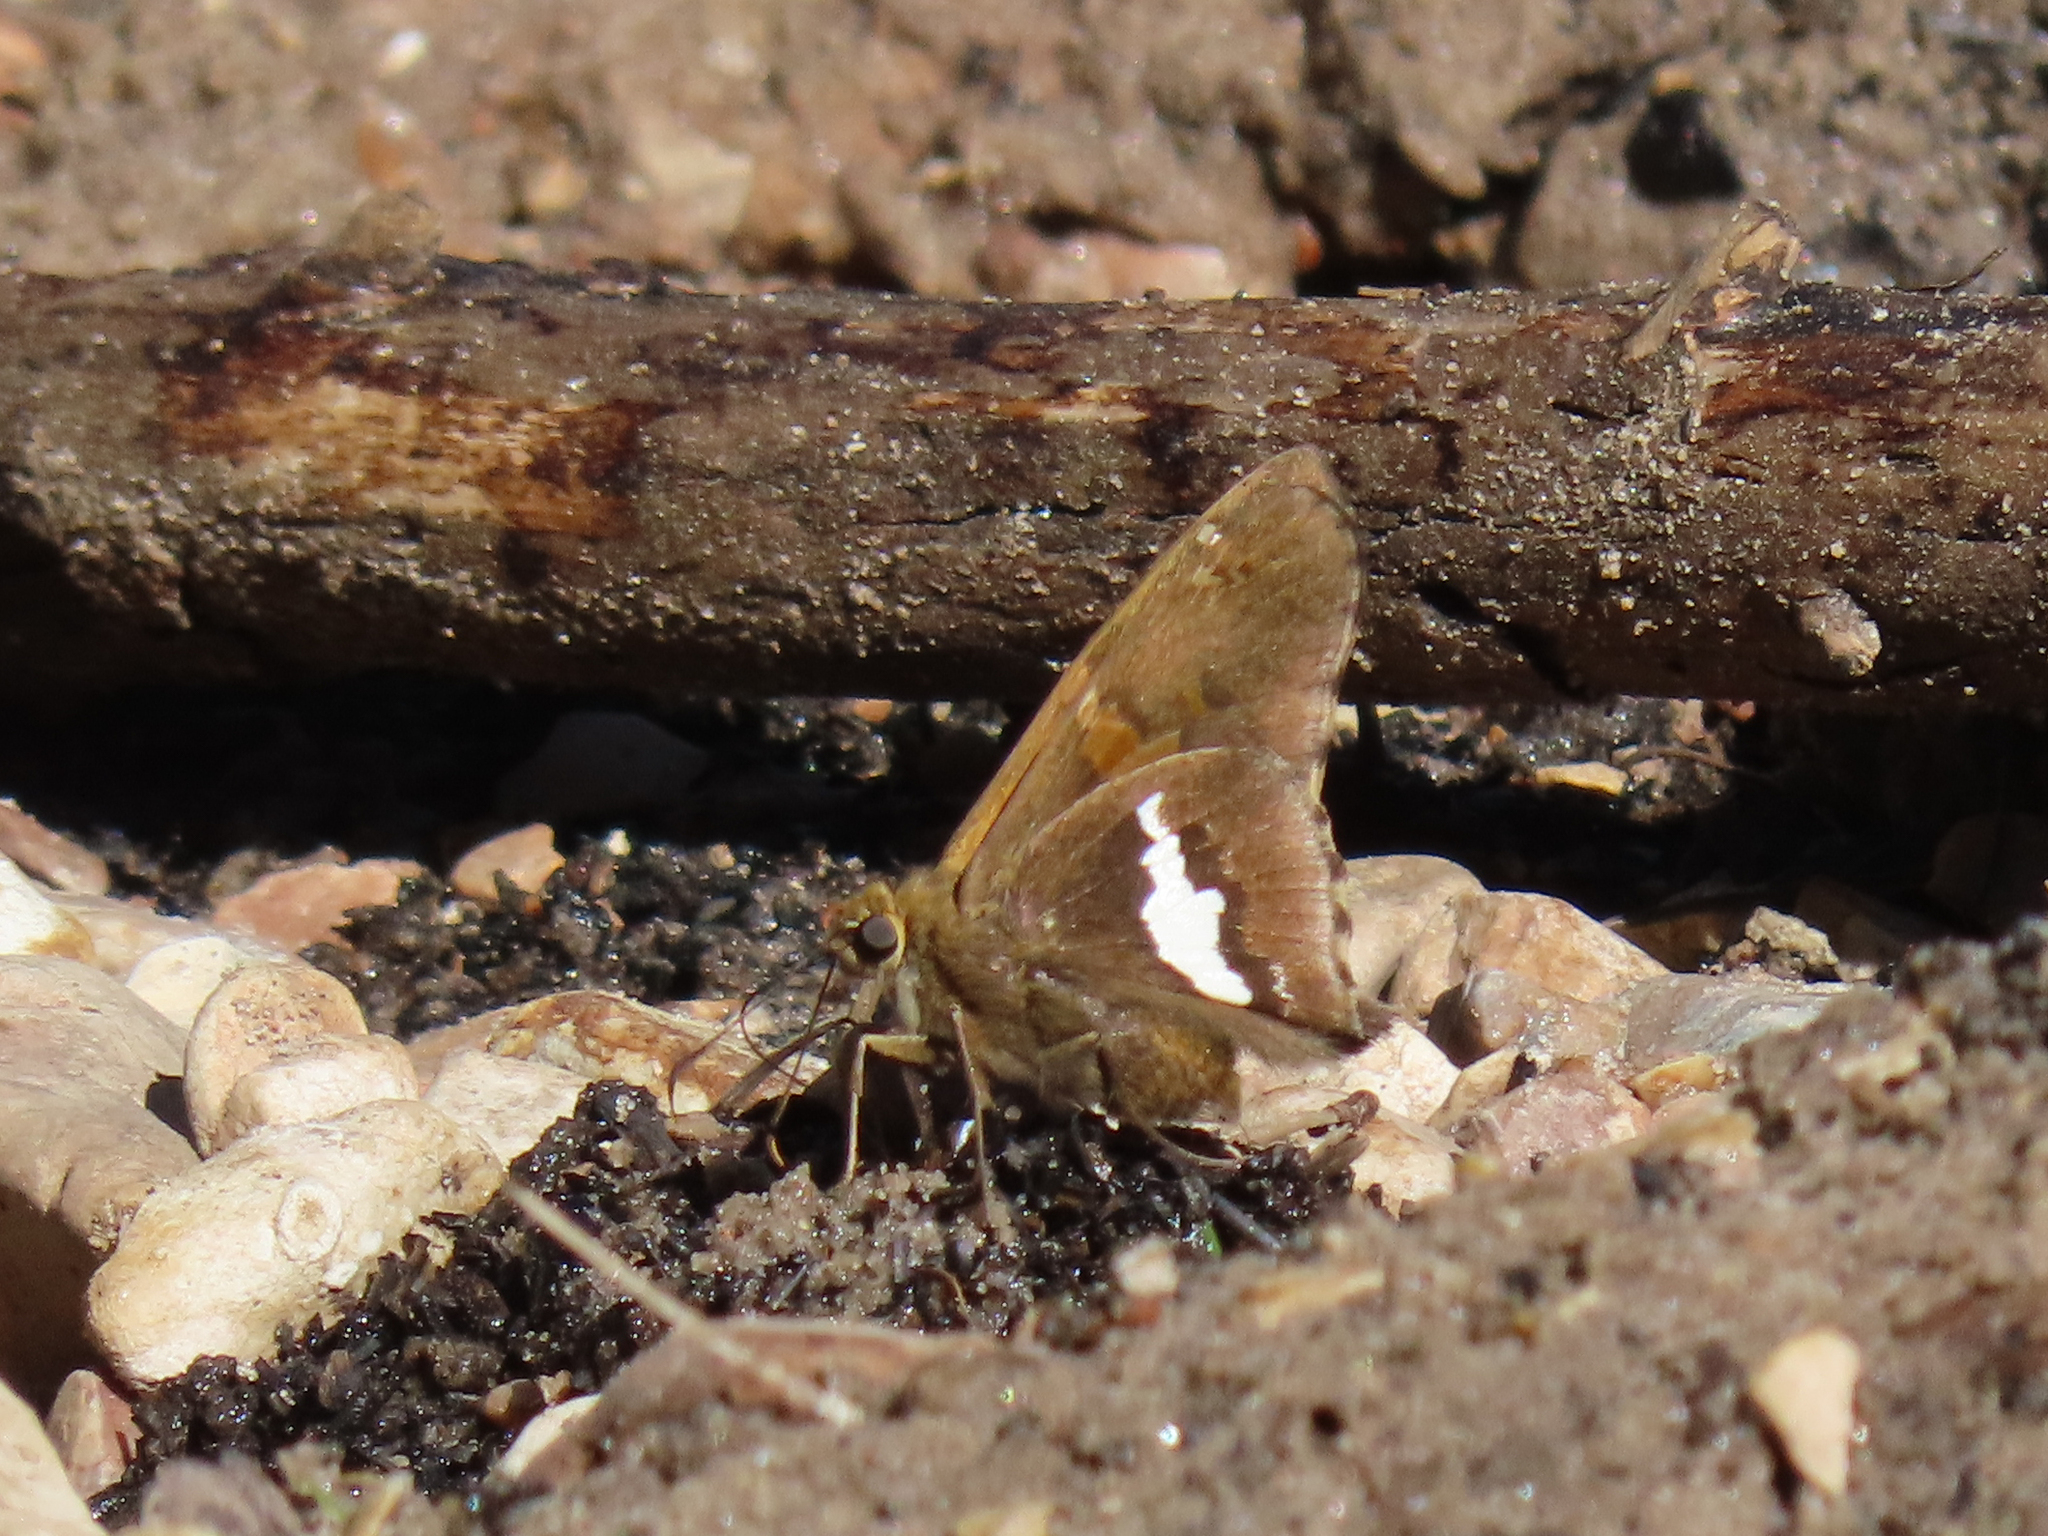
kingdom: Animalia
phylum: Arthropoda
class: Insecta
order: Lepidoptera
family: Hesperiidae
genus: Epargyreus
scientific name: Epargyreus clarus
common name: Silver-spotted skipper
